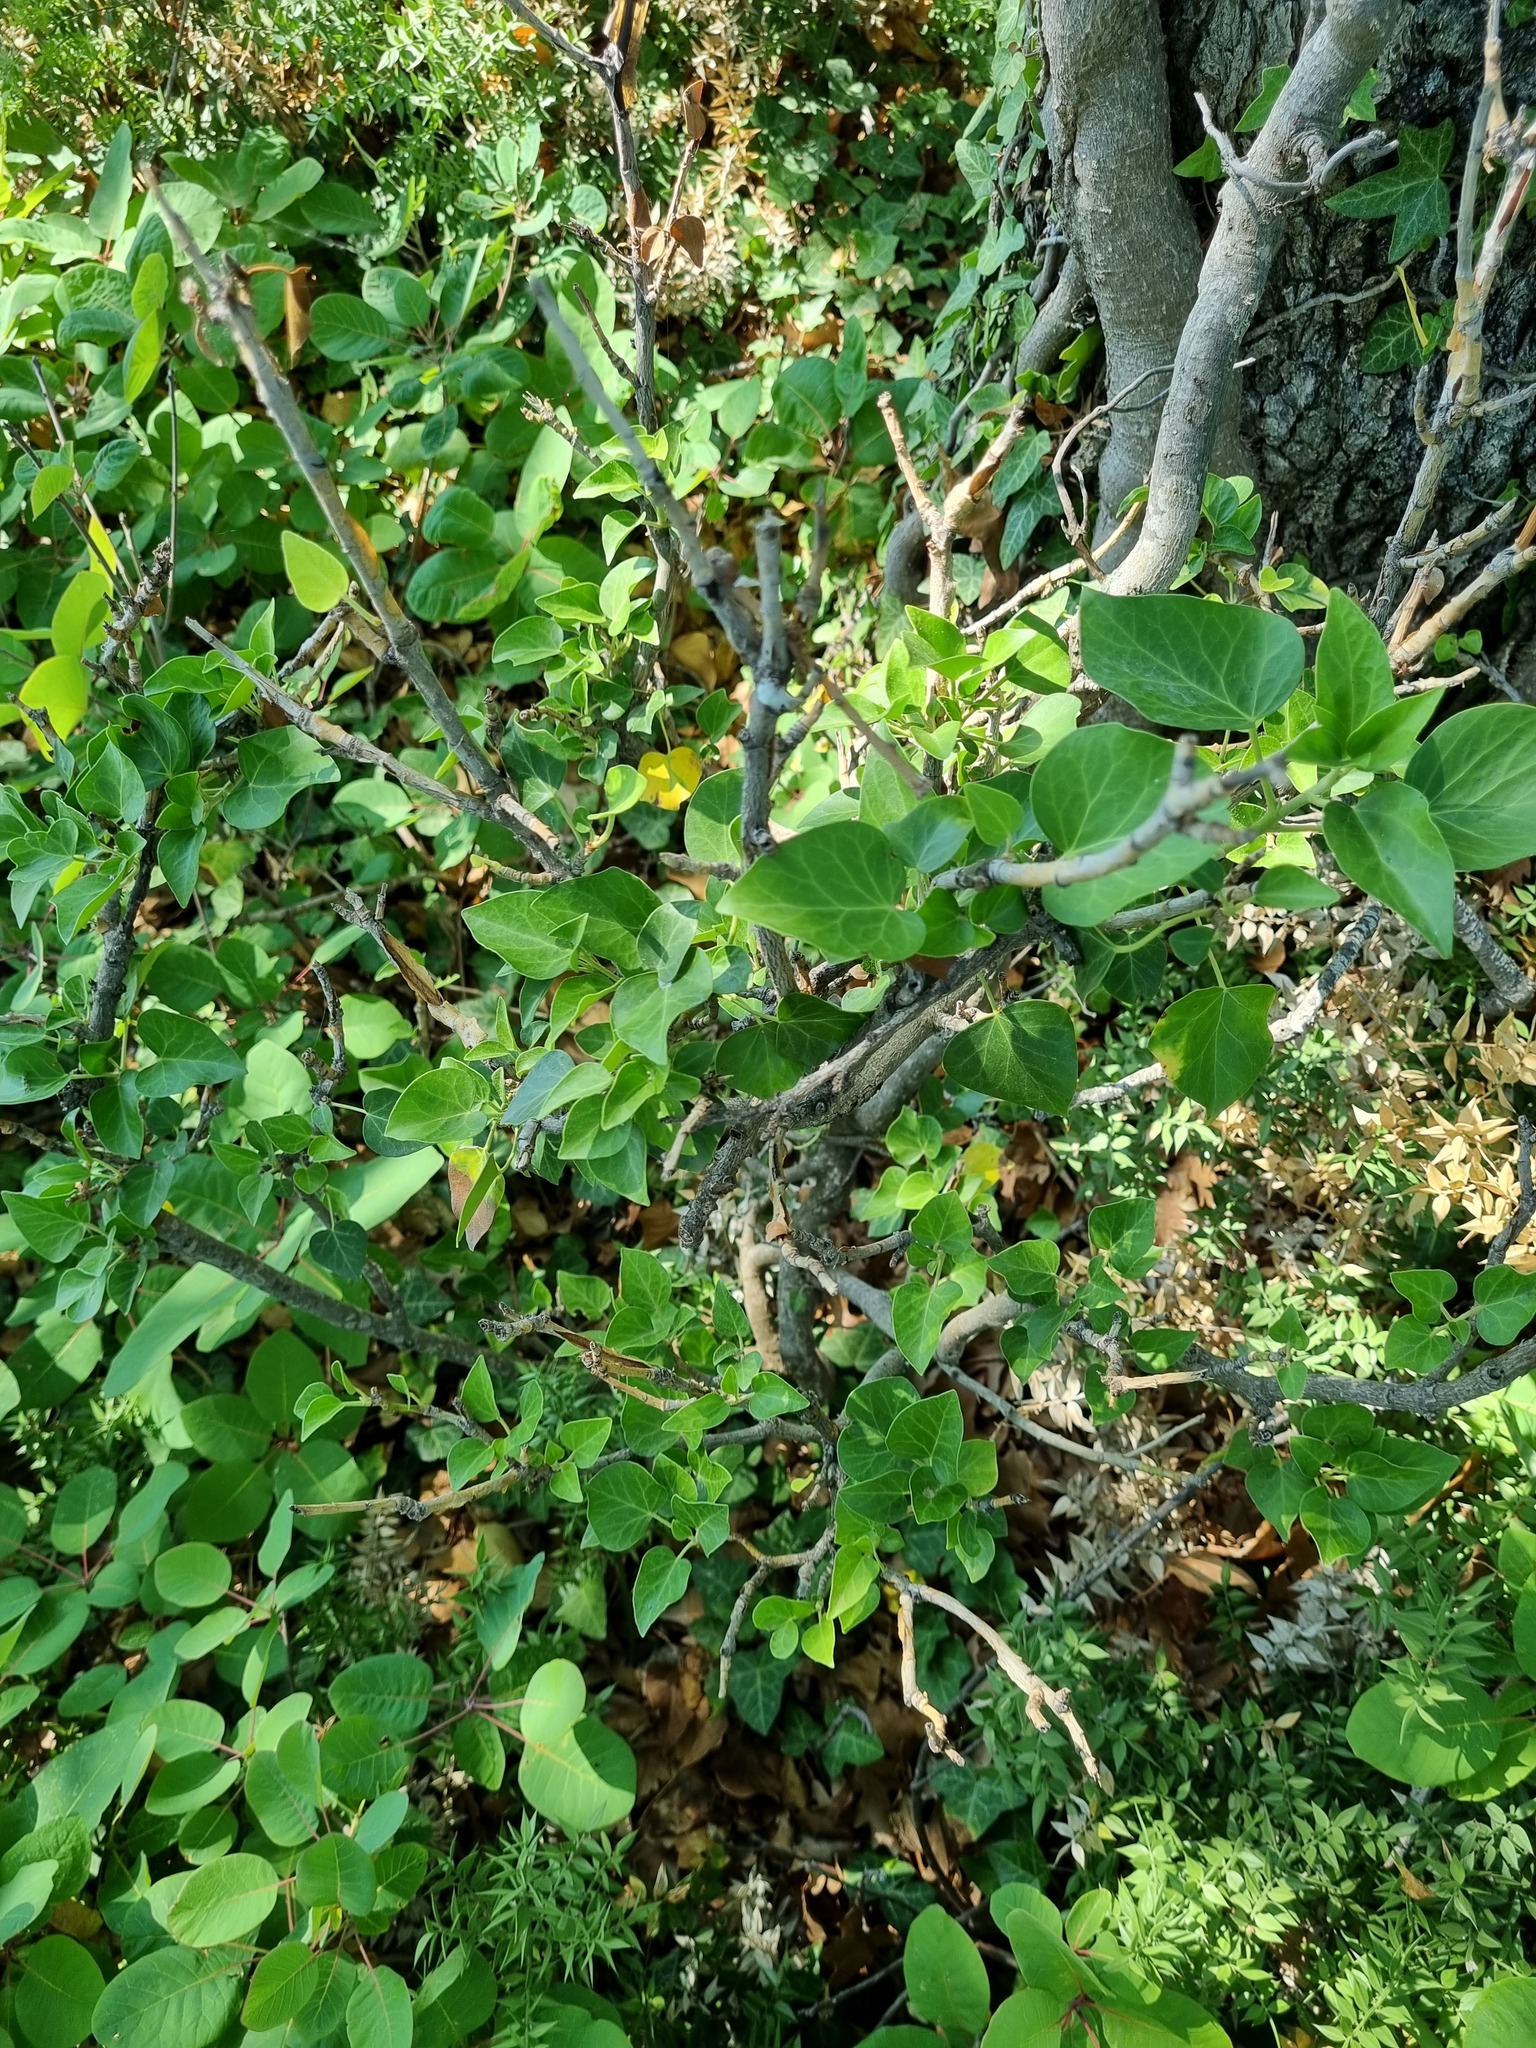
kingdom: Plantae
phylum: Tracheophyta
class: Magnoliopsida
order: Apiales
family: Araliaceae
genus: Hedera
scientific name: Hedera helix
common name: Ivy
